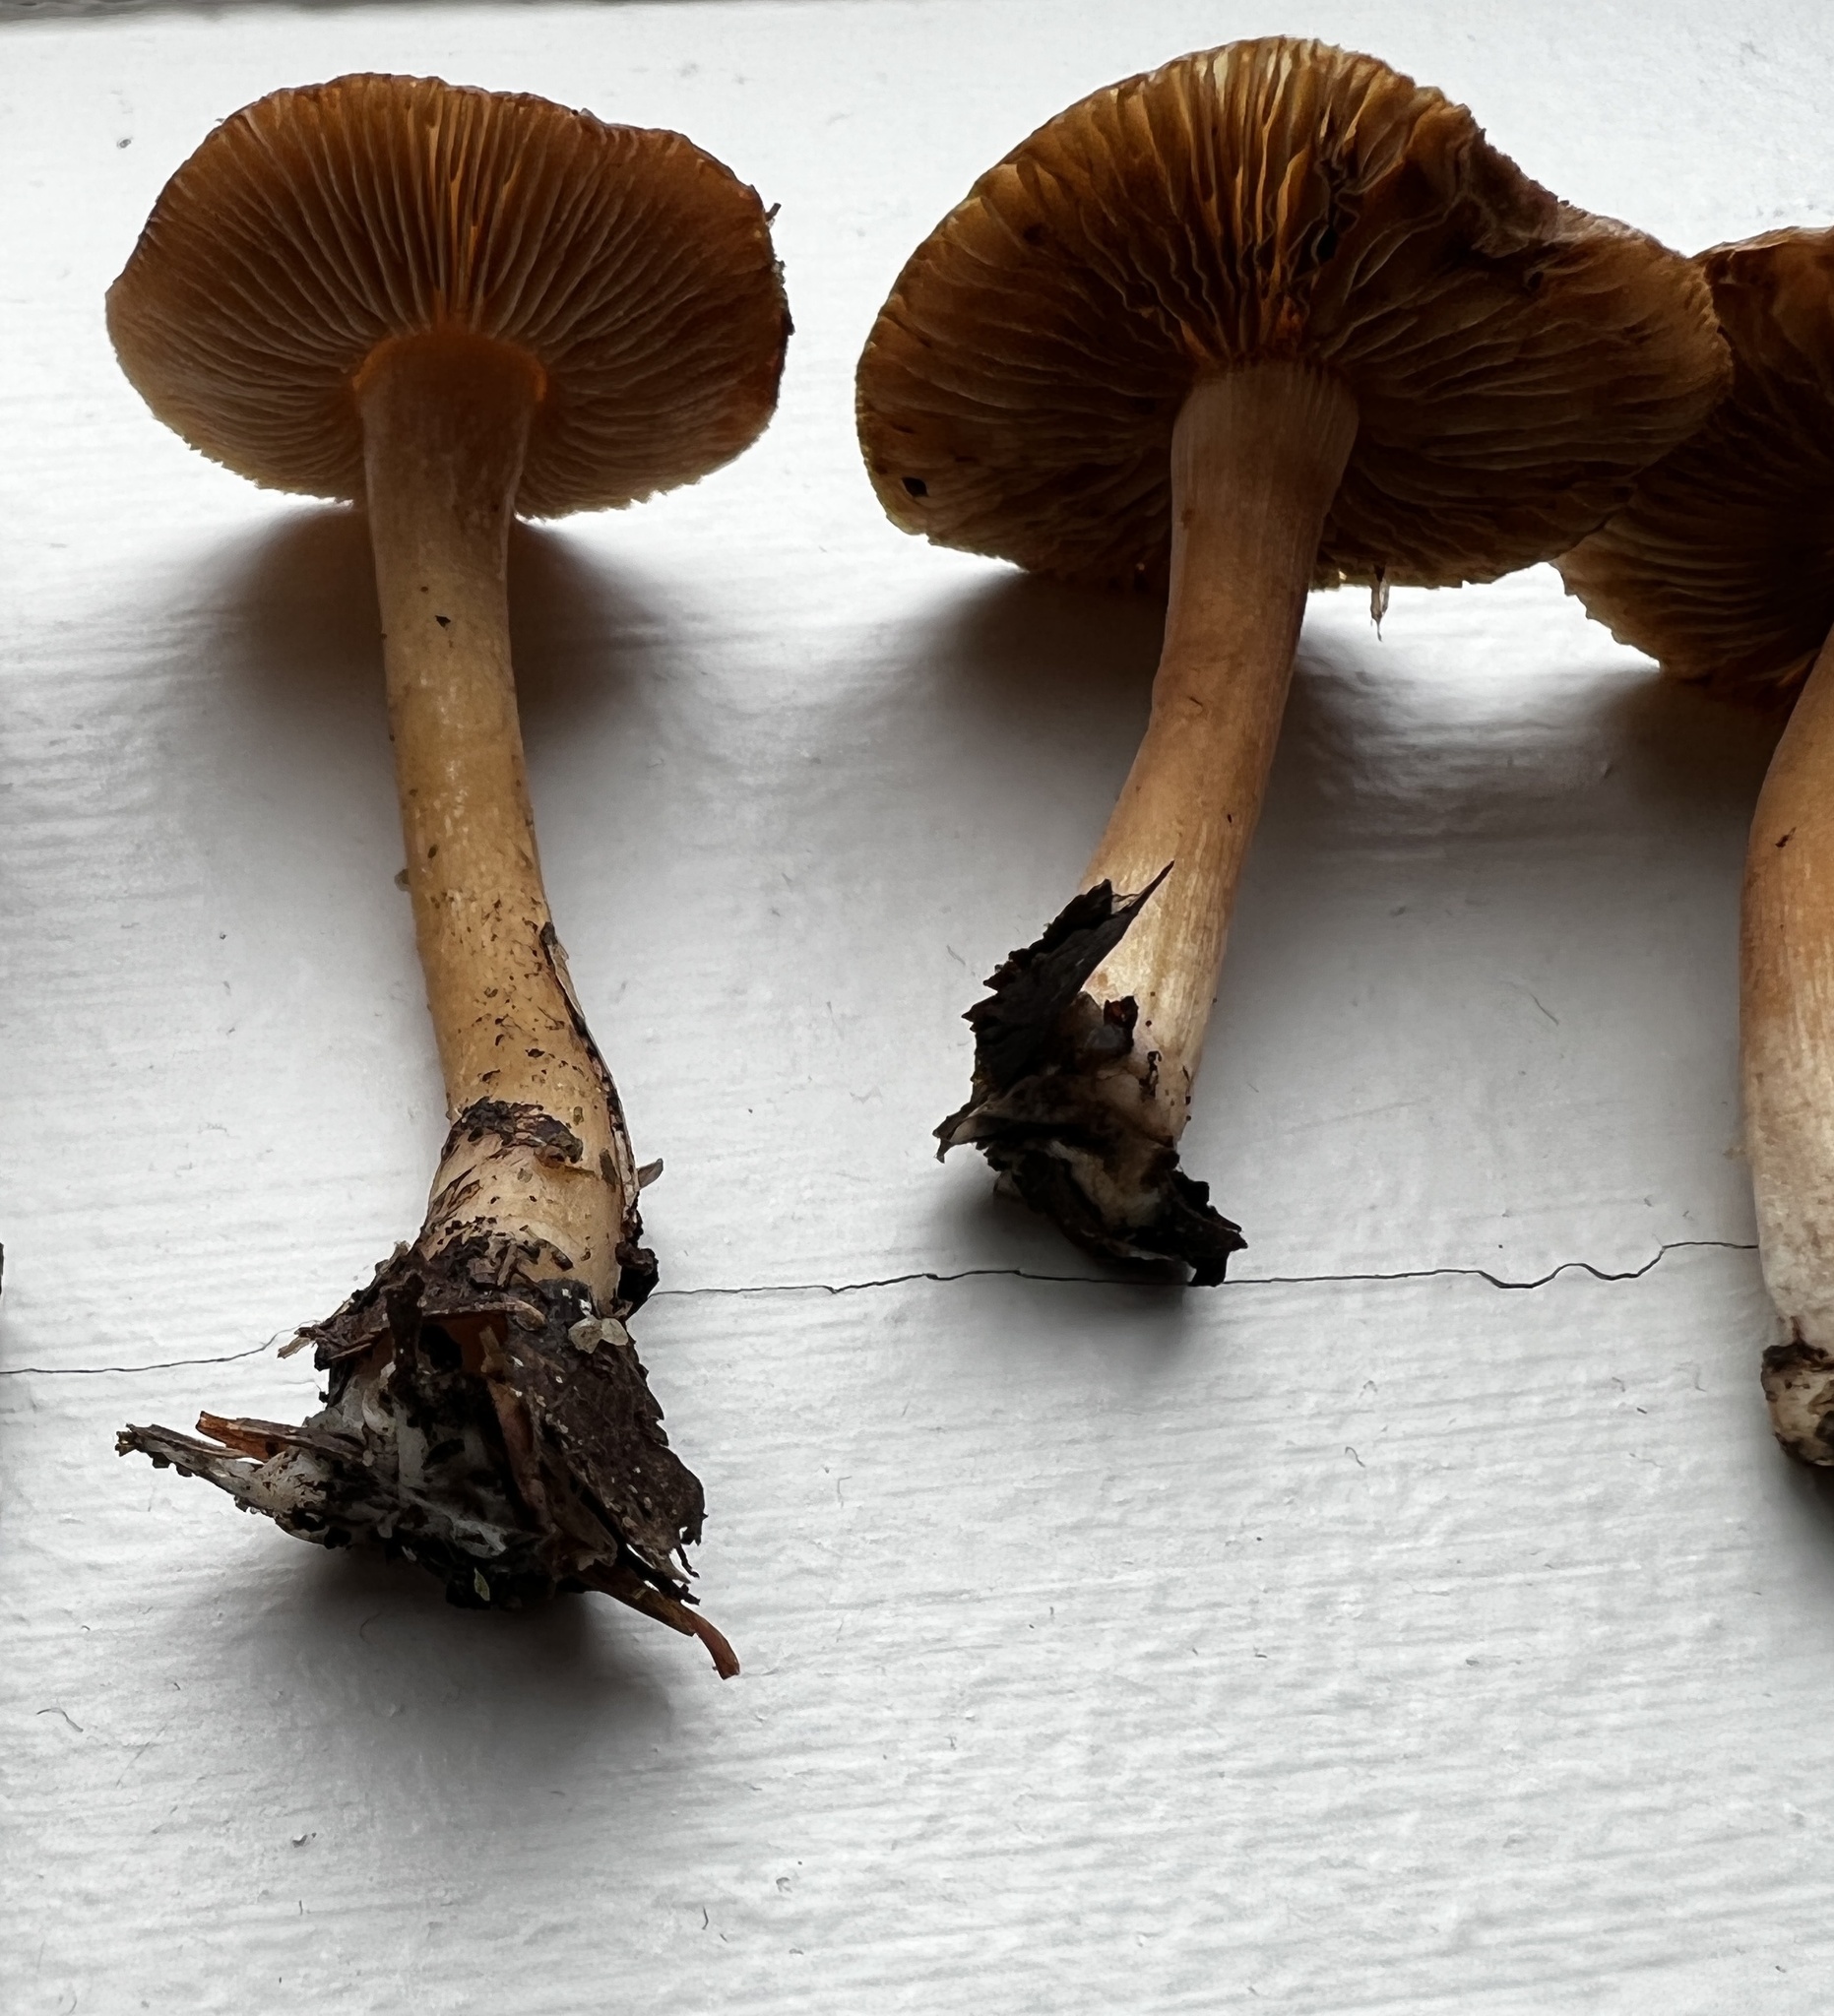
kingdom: Fungi
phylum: Basidiomycota
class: Agaricomycetes
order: Agaricales
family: Inocybaceae
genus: Inocybe
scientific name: Inocybe flocculosa
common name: Fleecy fibrecap
